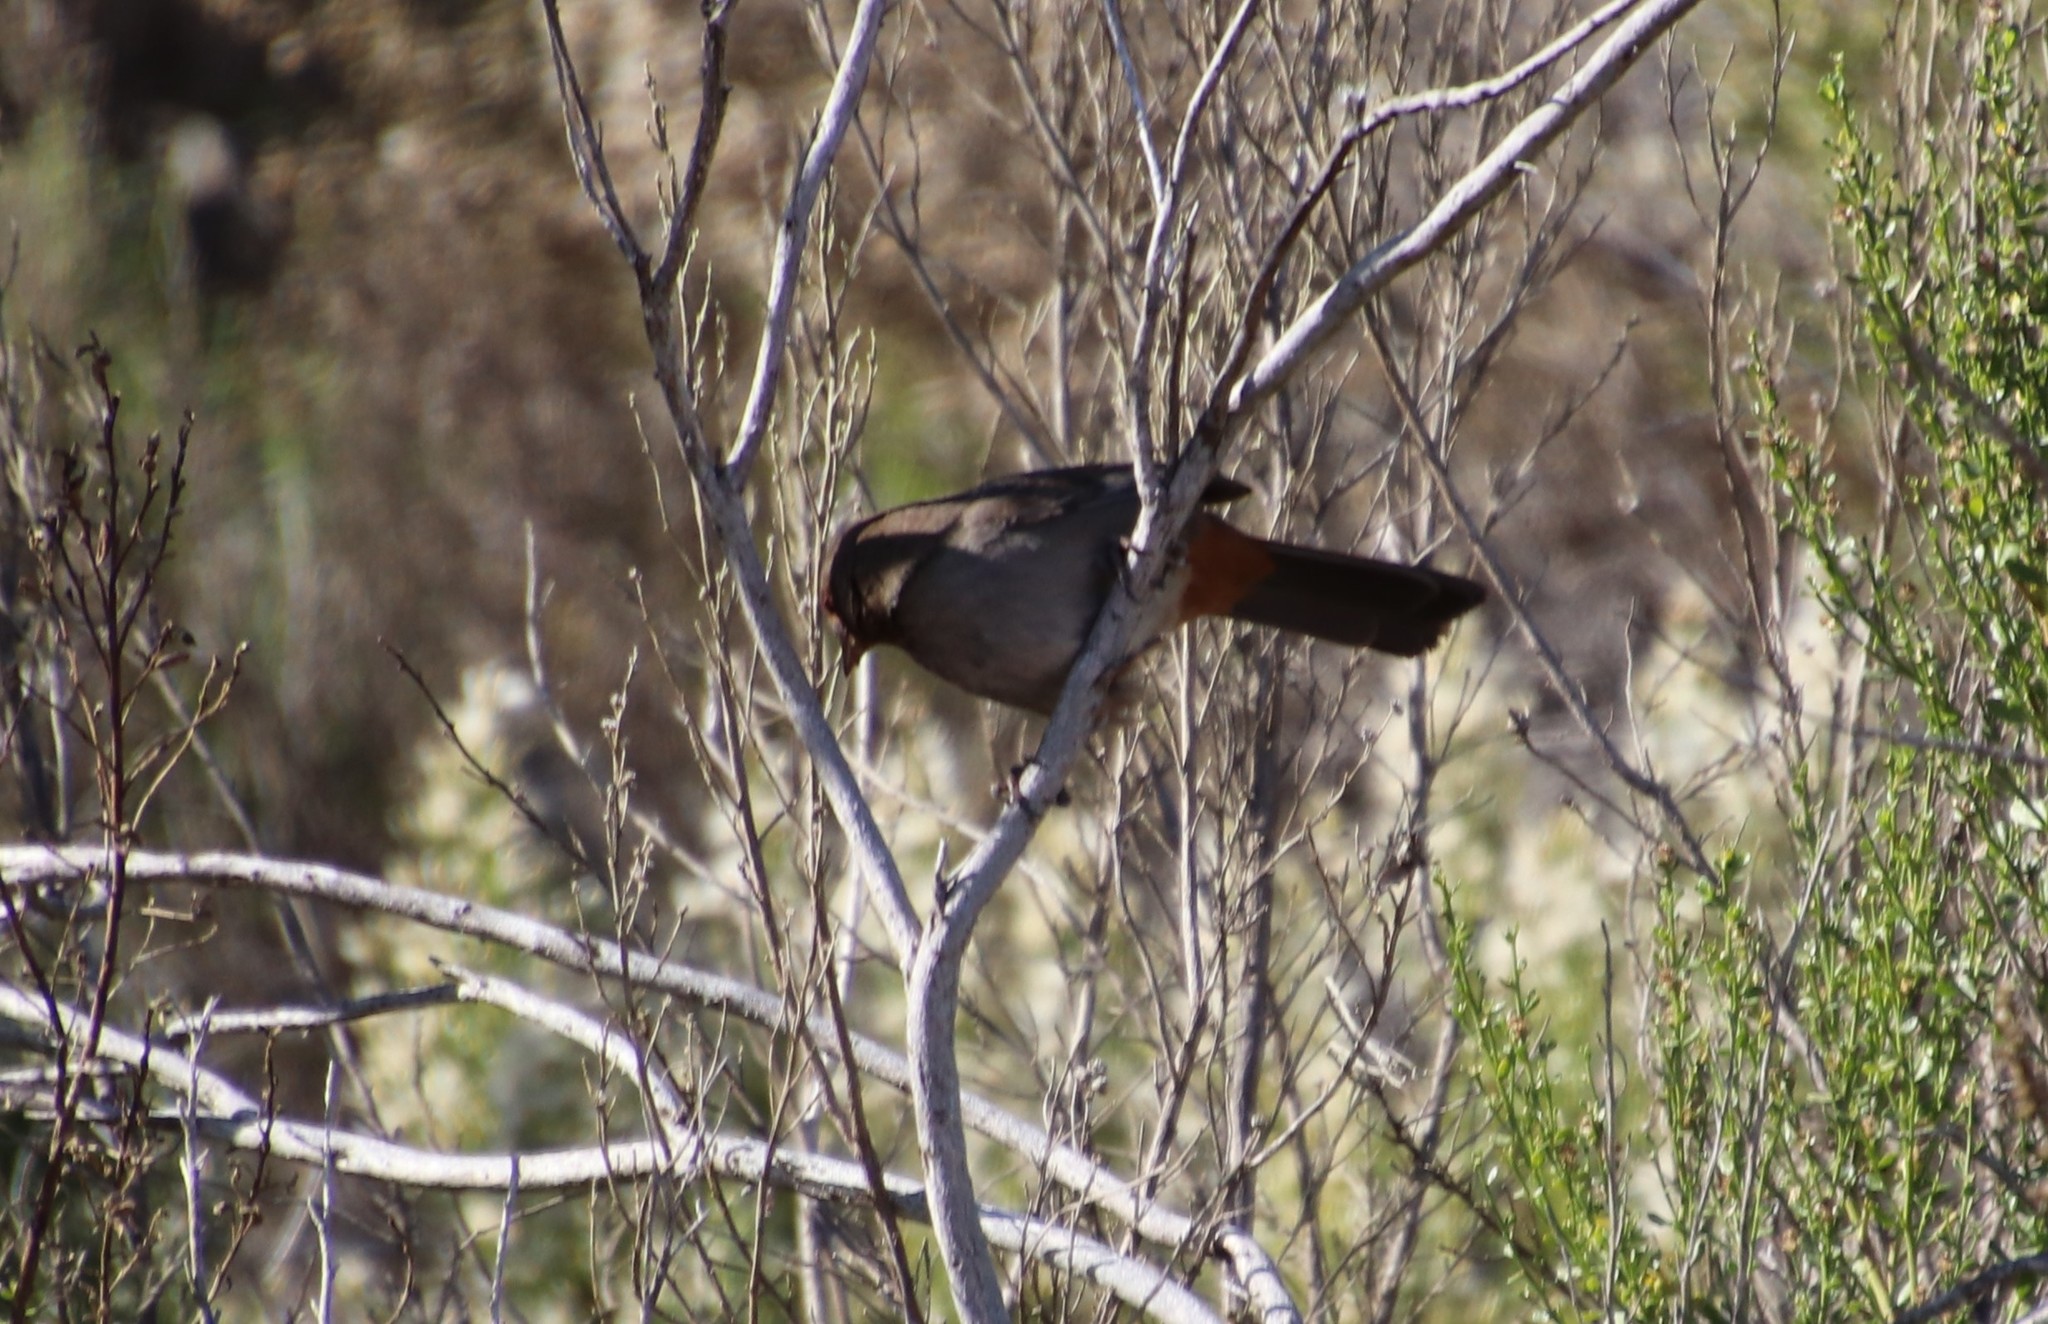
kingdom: Animalia
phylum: Chordata
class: Aves
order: Passeriformes
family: Passerellidae
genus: Melozone
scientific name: Melozone crissalis
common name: California towhee
